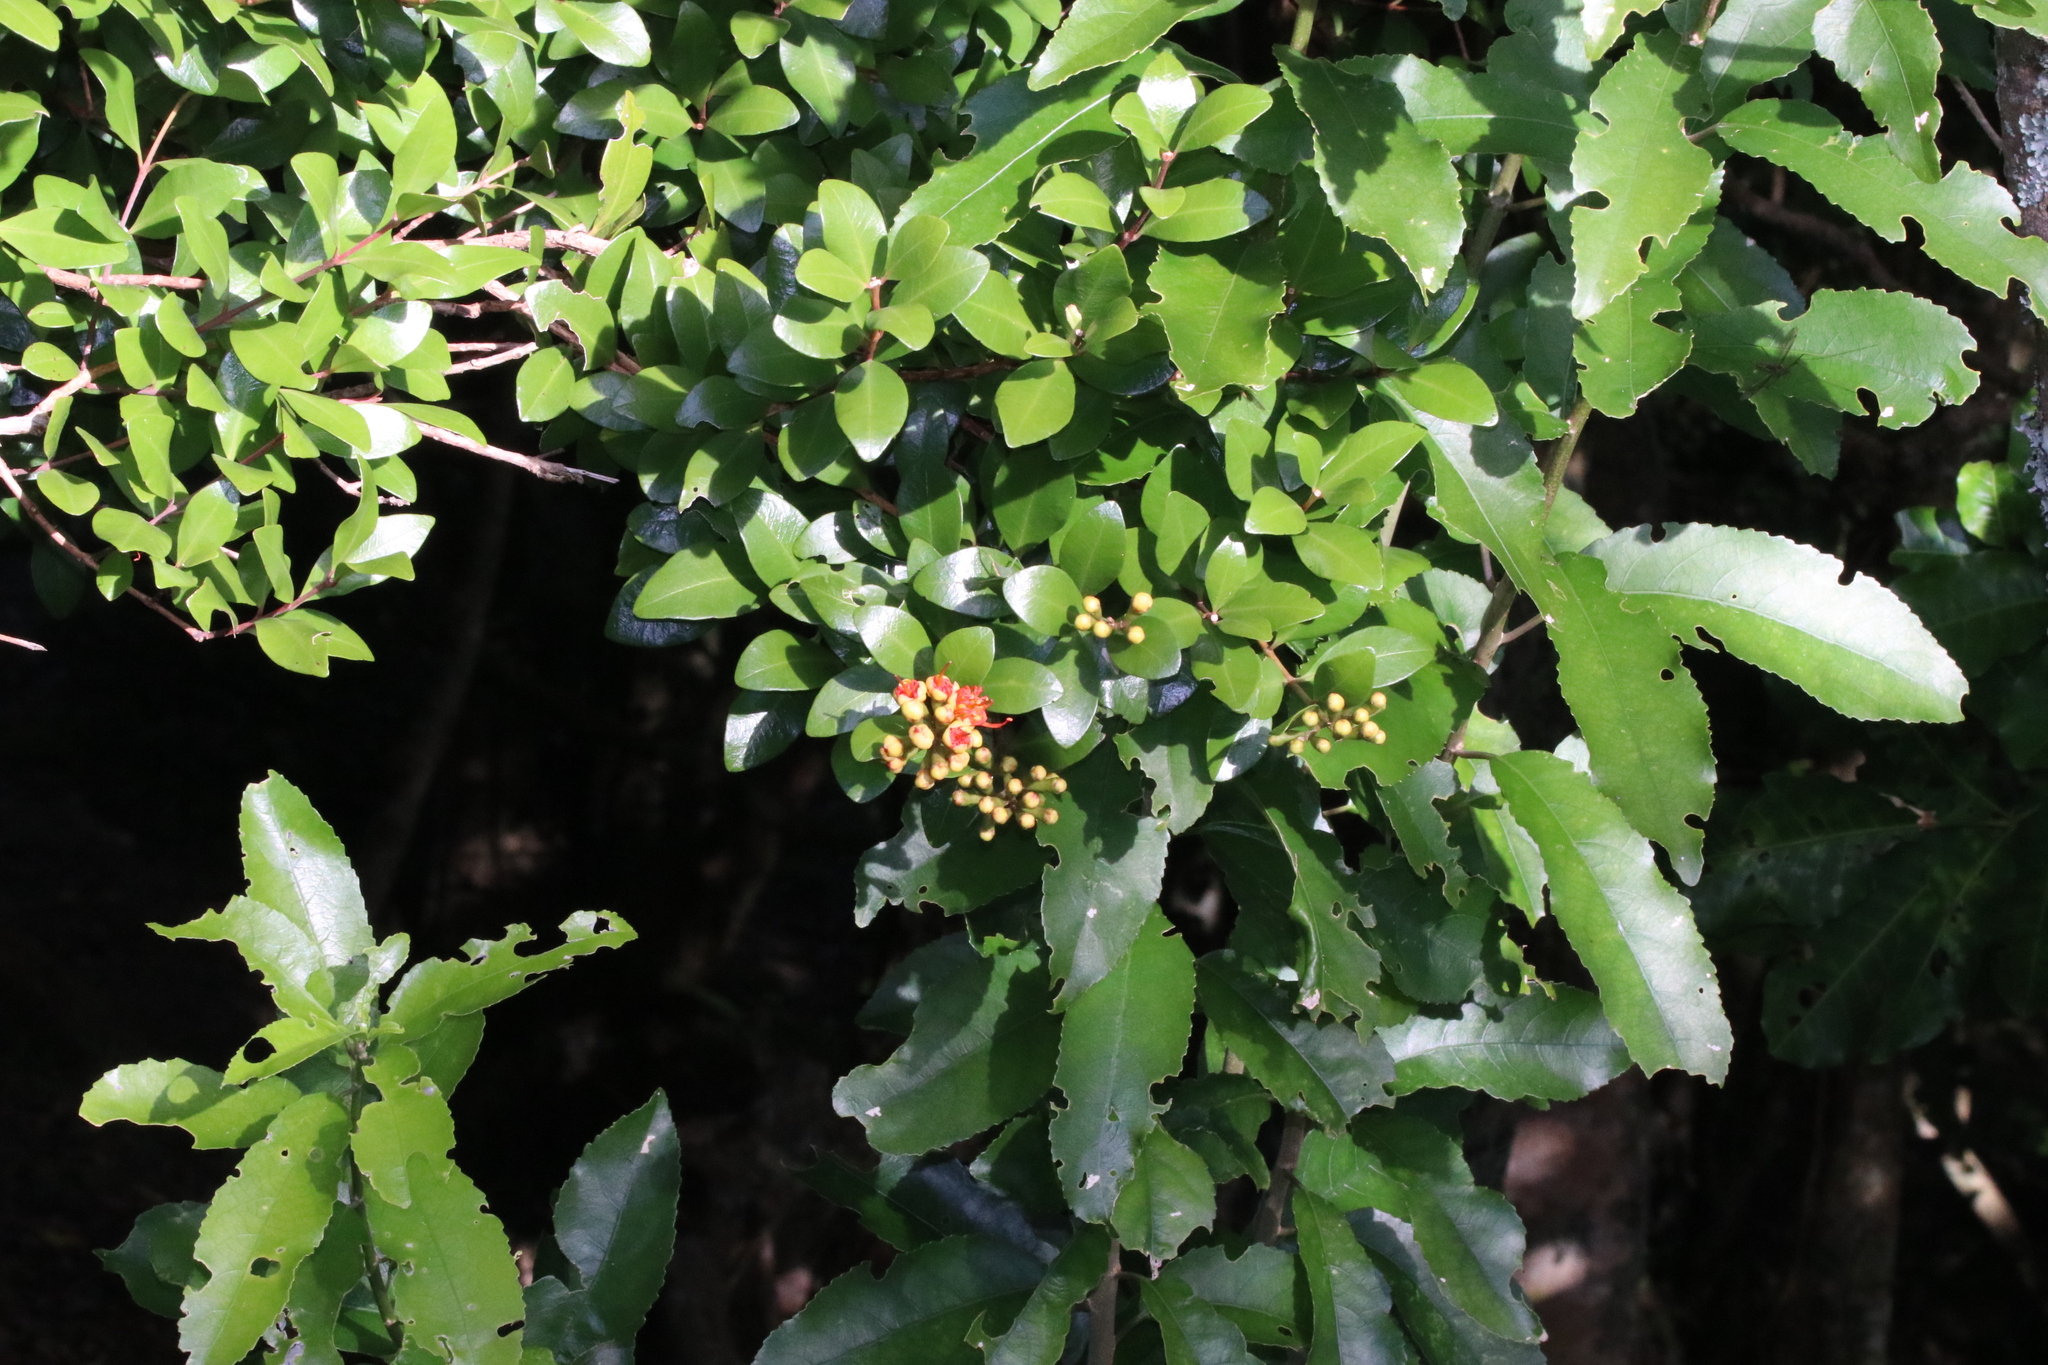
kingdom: Plantae
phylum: Tracheophyta
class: Magnoliopsida
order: Myrtales
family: Myrtaceae
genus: Metrosideros
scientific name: Metrosideros fulgens
